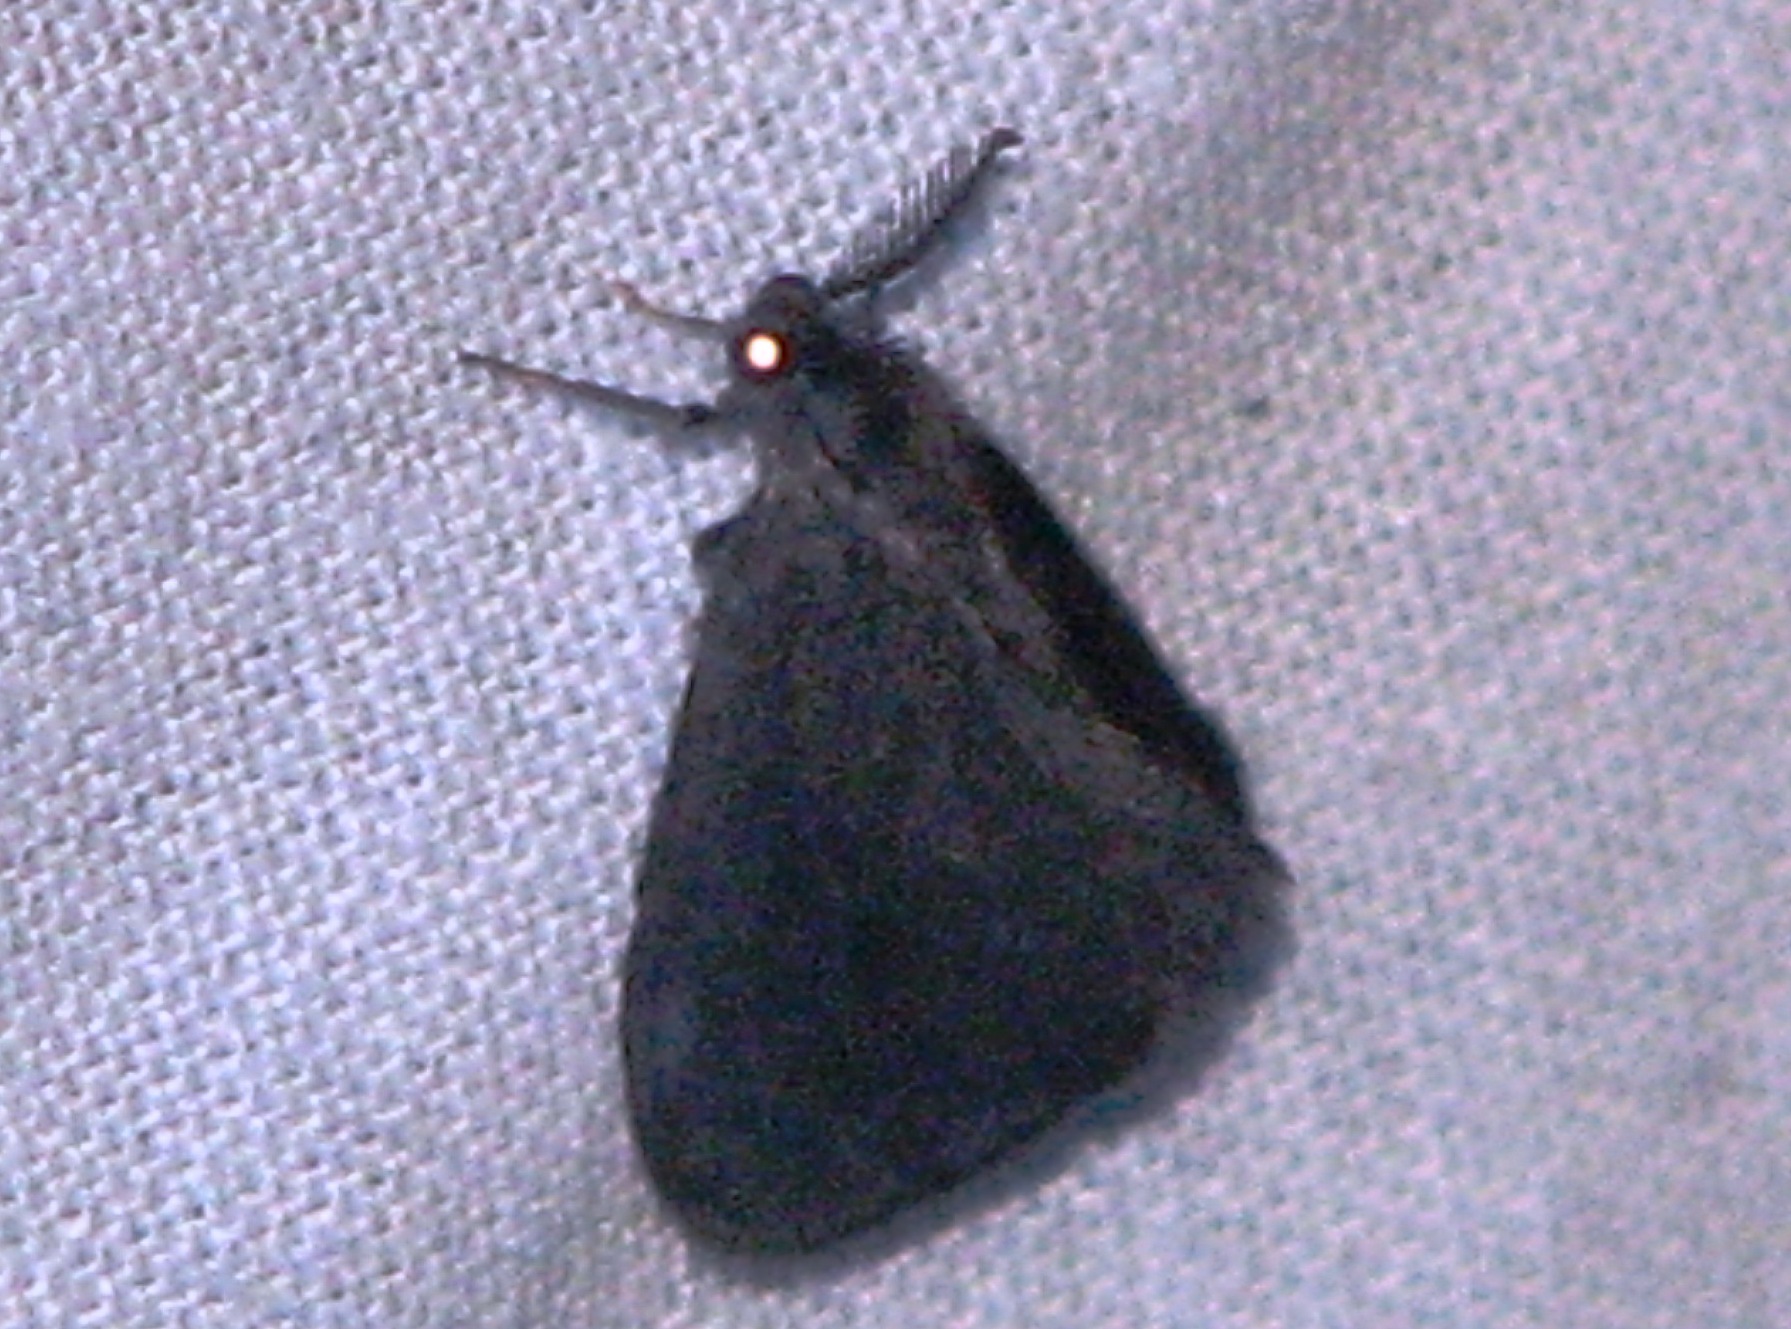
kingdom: Animalia
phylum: Arthropoda
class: Insecta
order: Lepidoptera
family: Psychidae
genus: Cryptothelea
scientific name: Cryptothelea gloverii
